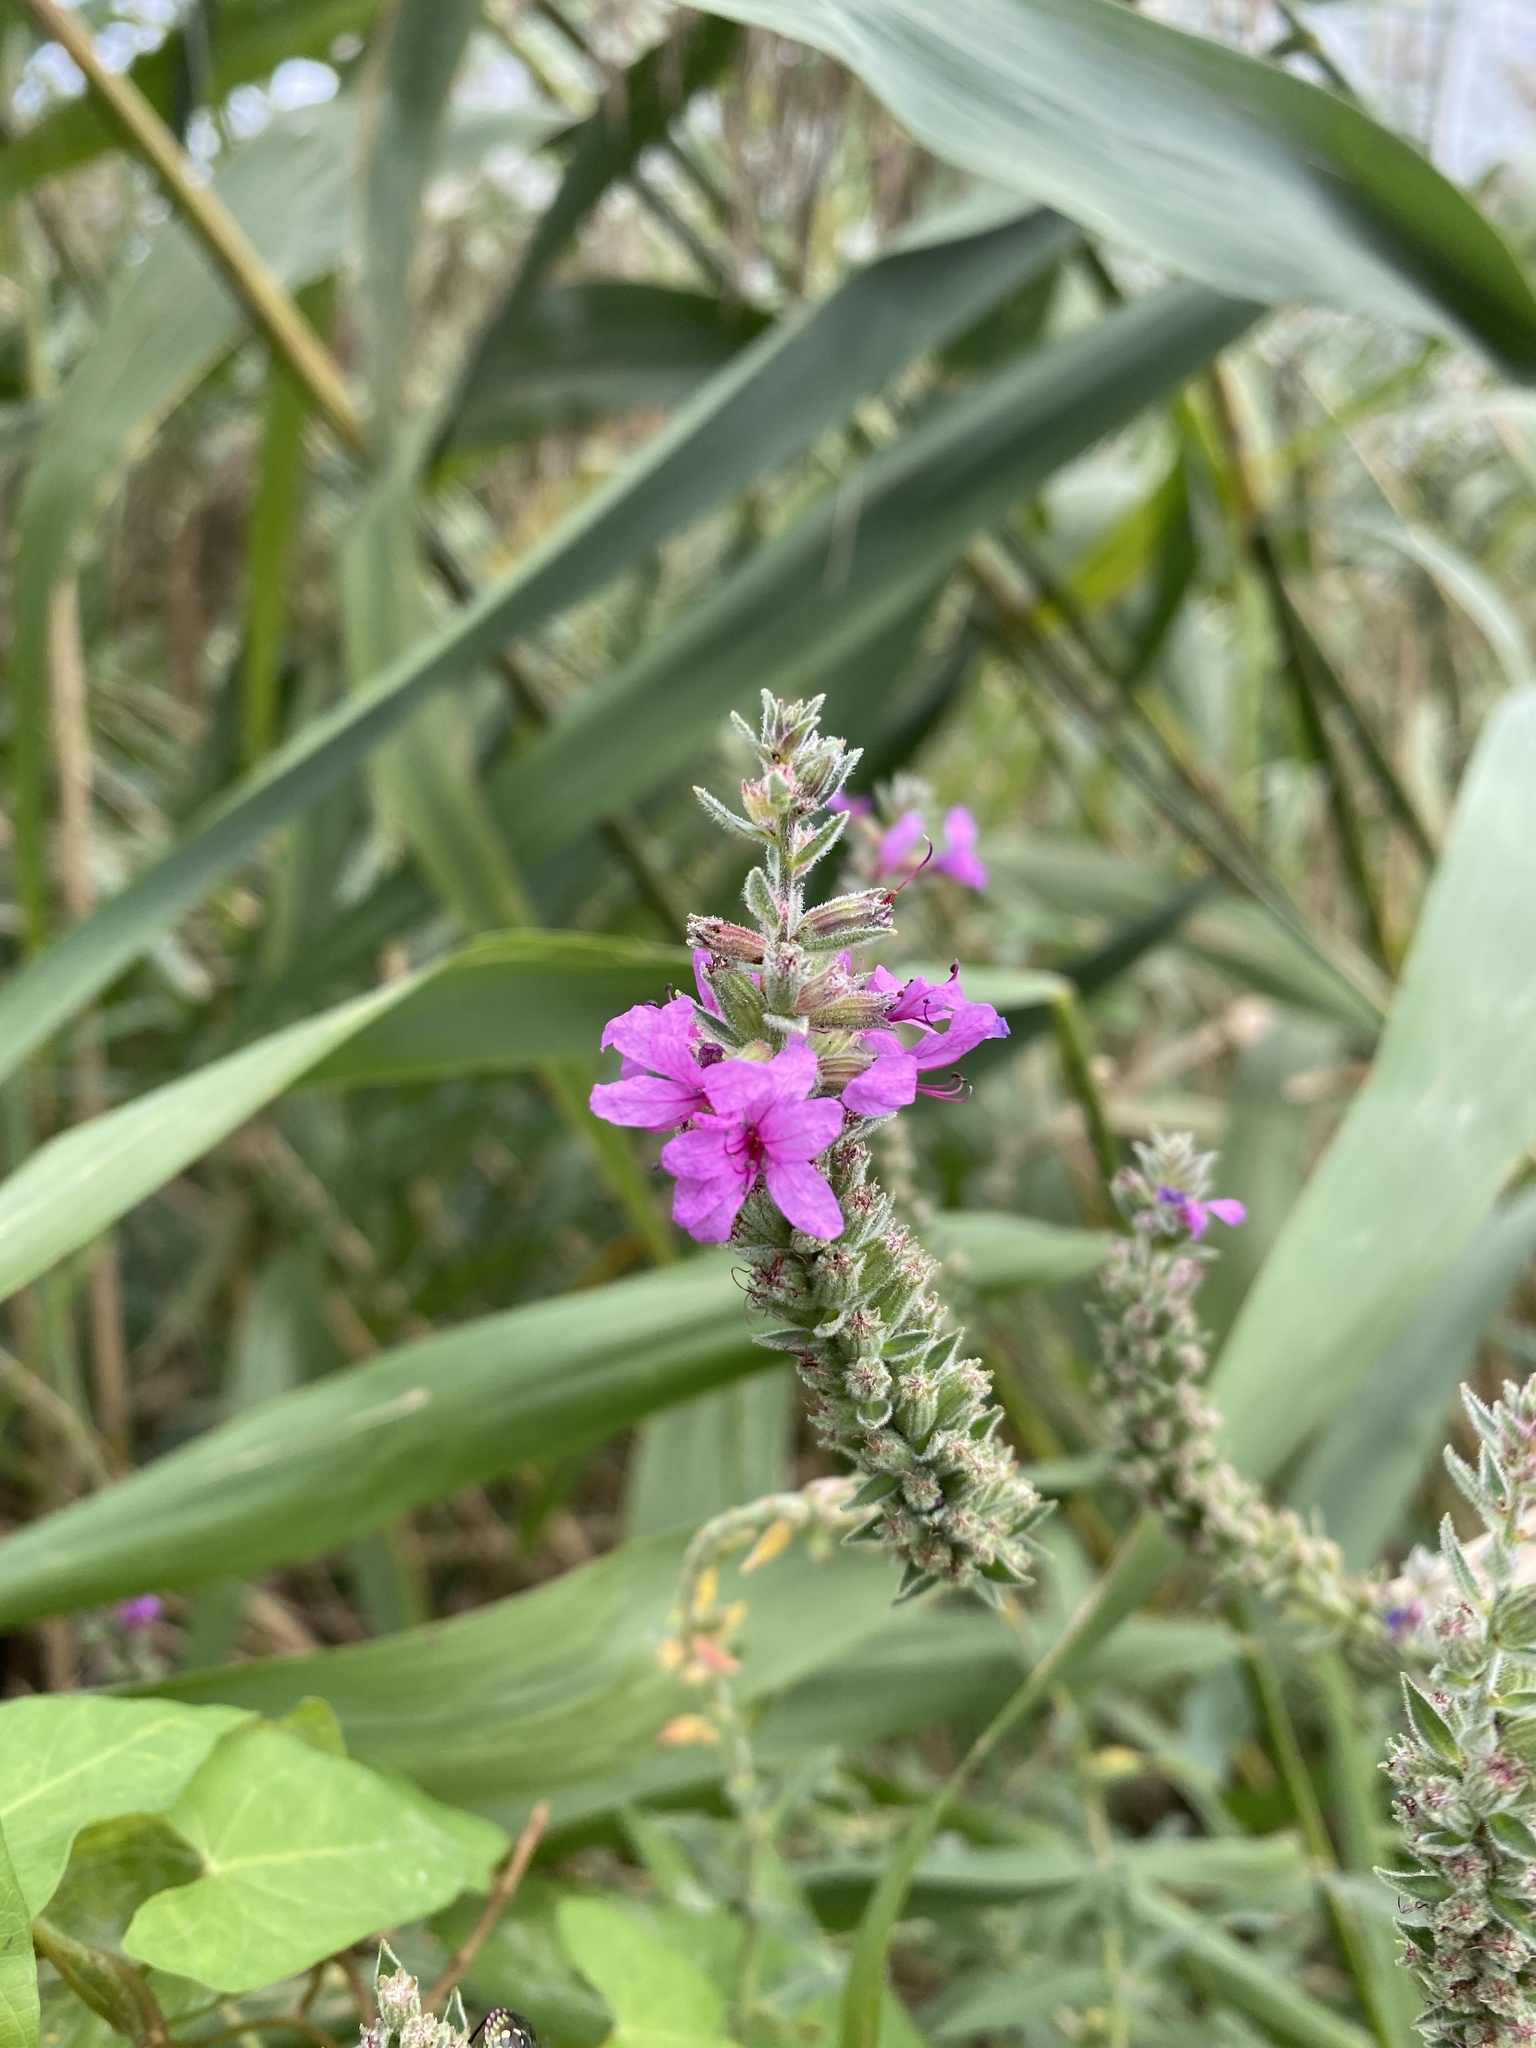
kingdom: Plantae
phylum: Tracheophyta
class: Magnoliopsida
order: Myrtales
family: Lythraceae
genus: Lythrum
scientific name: Lythrum salicaria
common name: Purple loosestrife
